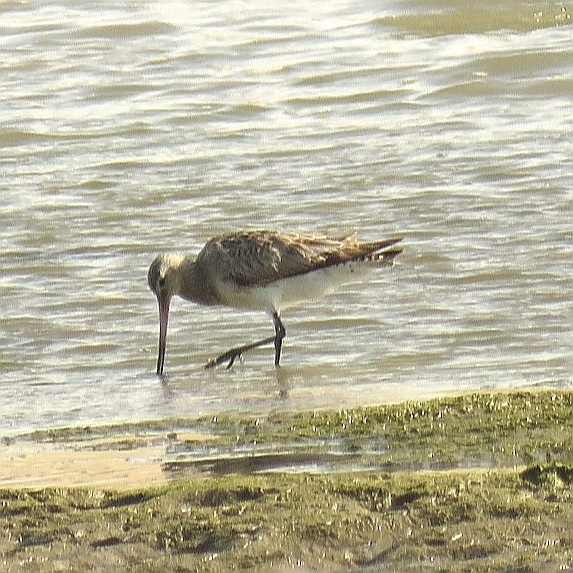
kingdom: Animalia
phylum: Chordata
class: Aves
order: Charadriiformes
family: Scolopacidae
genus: Limosa
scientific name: Limosa lapponica
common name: Bar-tailed godwit
